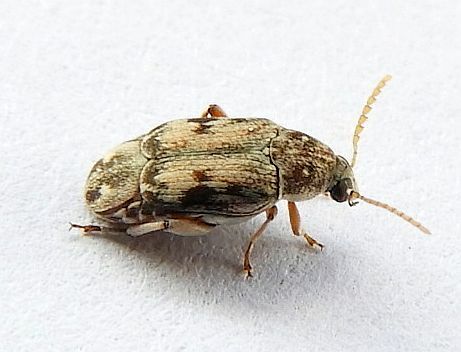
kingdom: Animalia
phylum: Arthropoda
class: Insecta
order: Coleoptera
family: Chrysomelidae
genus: Mimosestes
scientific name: Mimosestes protractus
